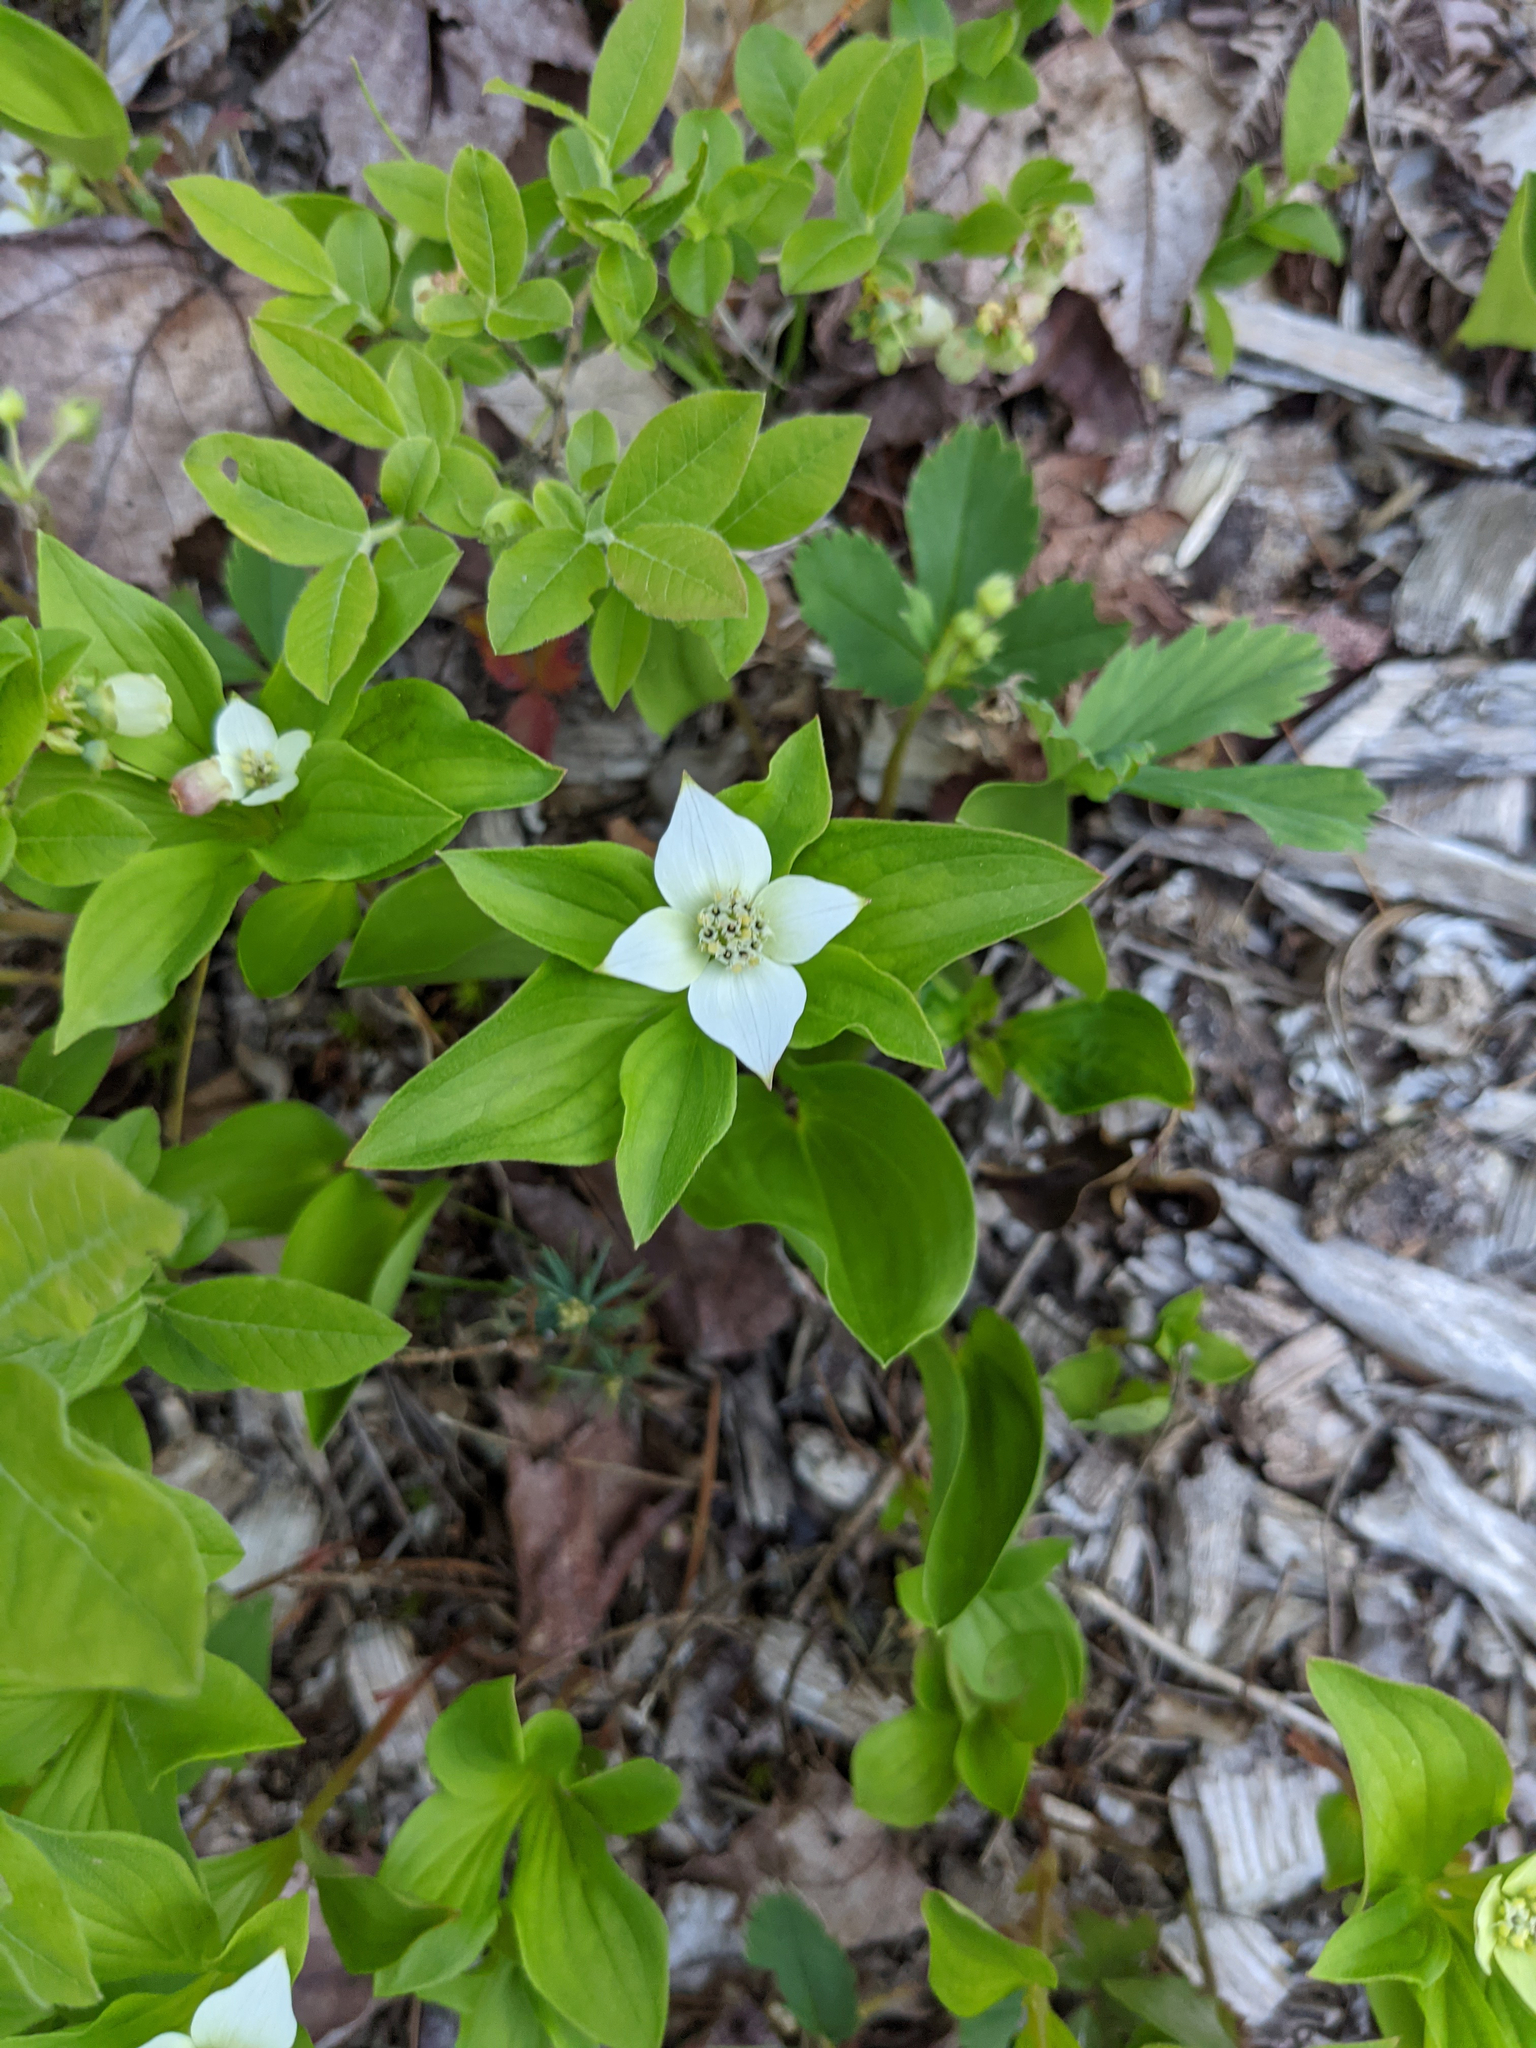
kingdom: Plantae
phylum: Tracheophyta
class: Magnoliopsida
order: Cornales
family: Cornaceae
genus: Cornus
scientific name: Cornus canadensis
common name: Creeping dogwood
